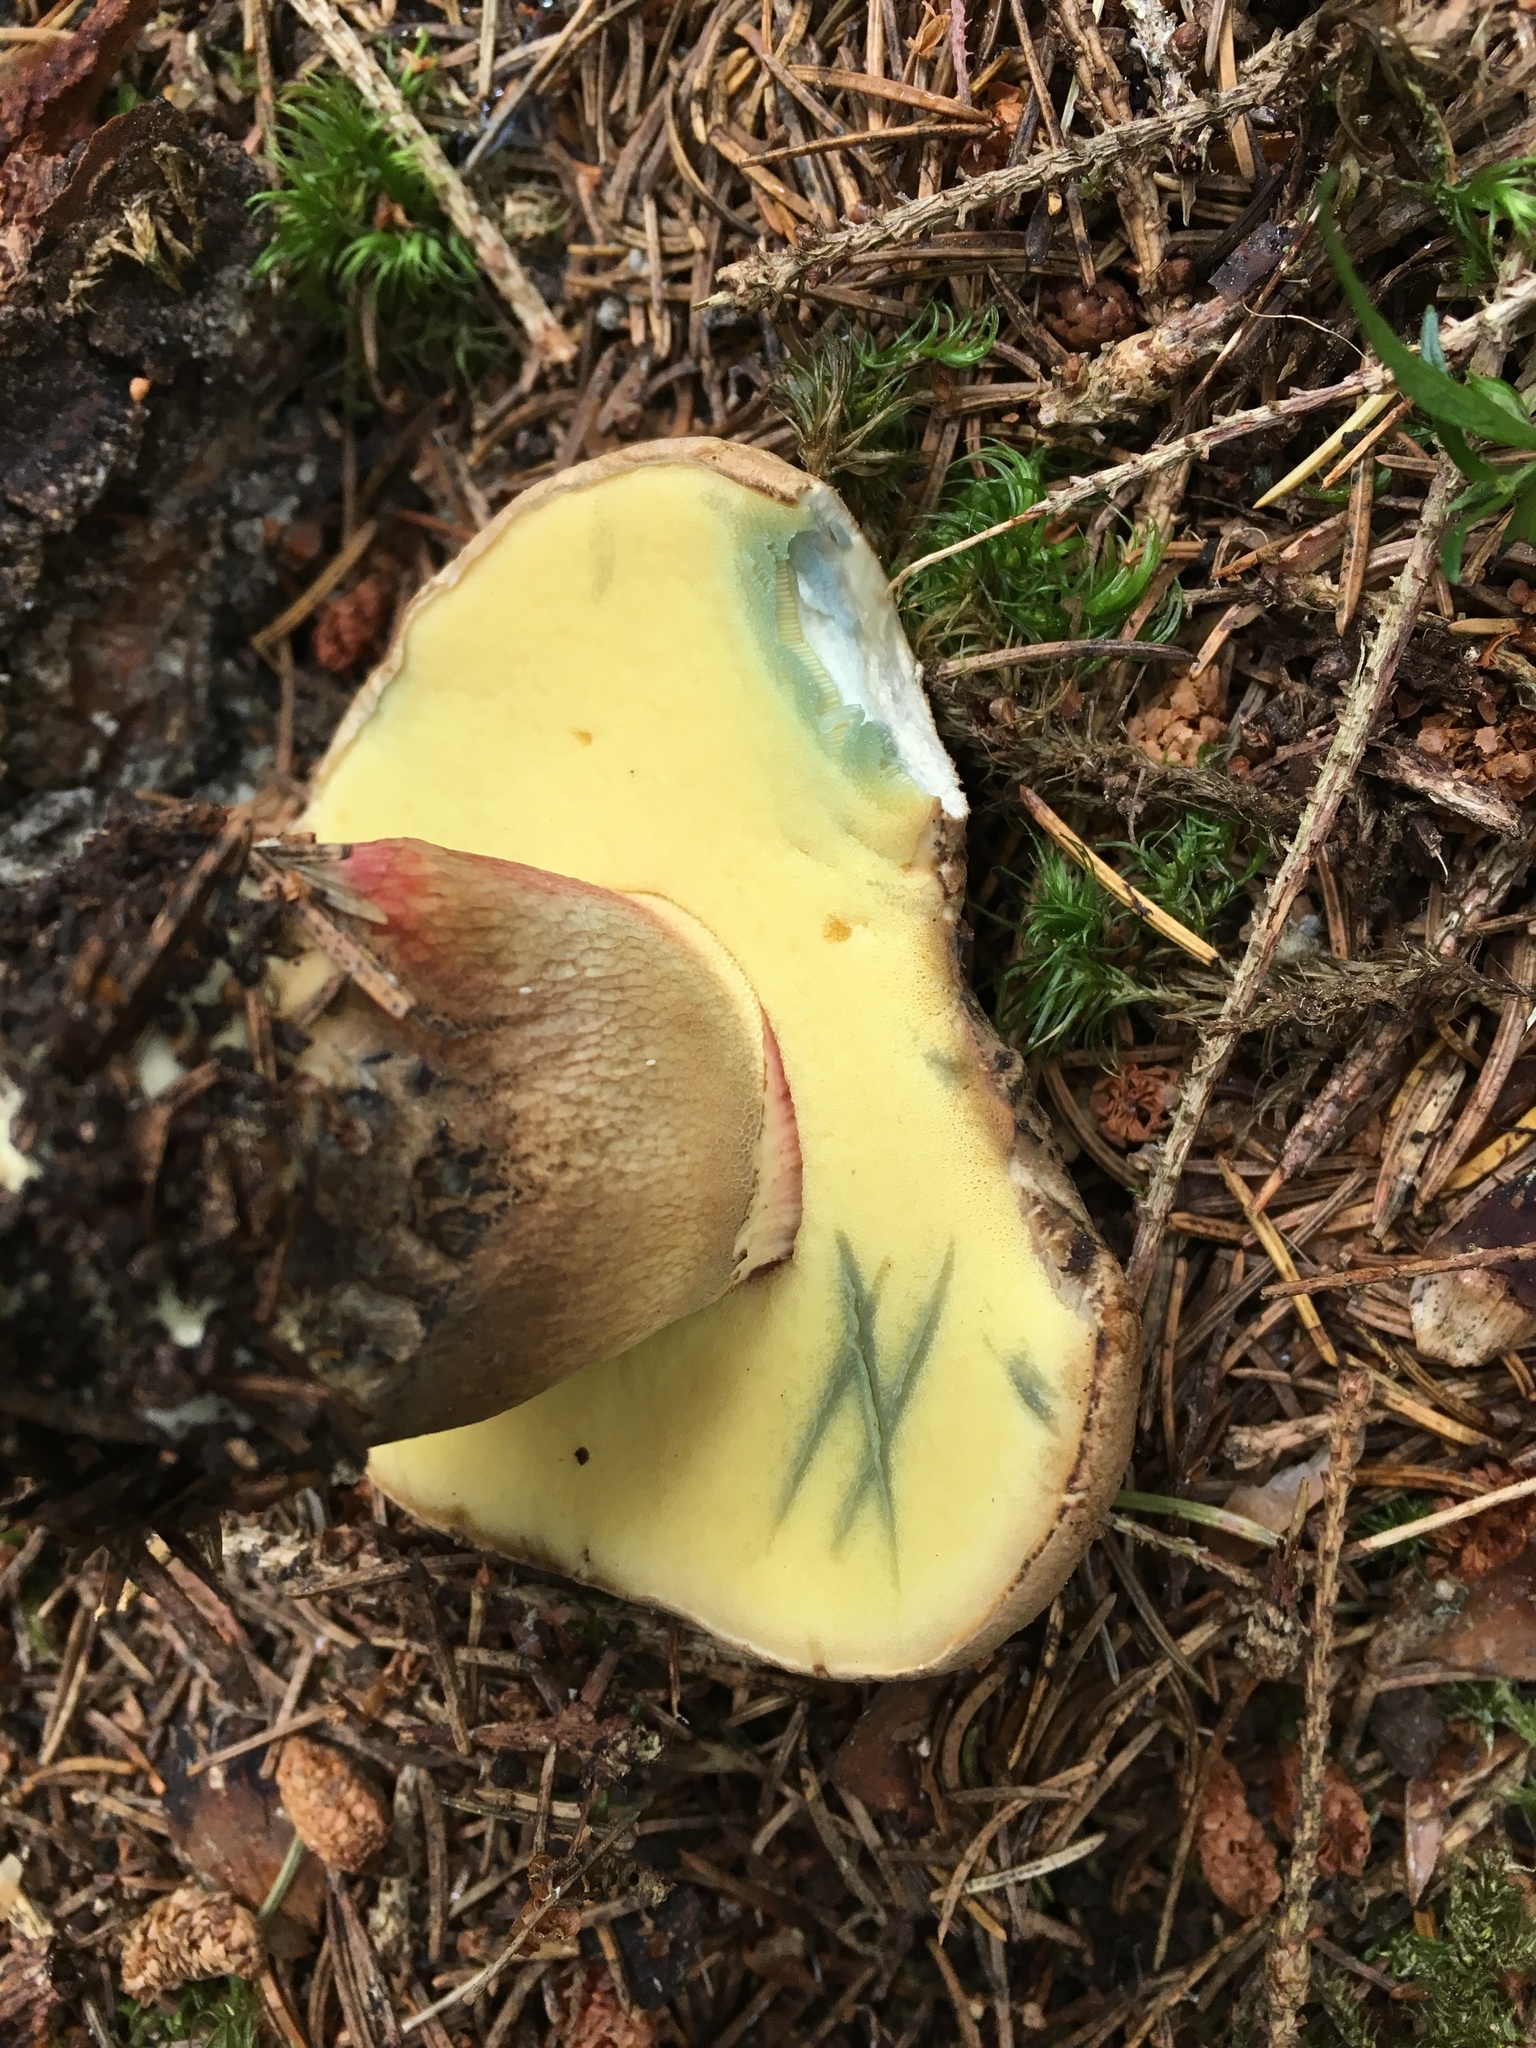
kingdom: Fungi
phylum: Basidiomycota
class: Agaricomycetes
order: Boletales
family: Boletaceae
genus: Caloboletus
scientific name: Caloboletus calopus
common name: Bitter beech bolete
